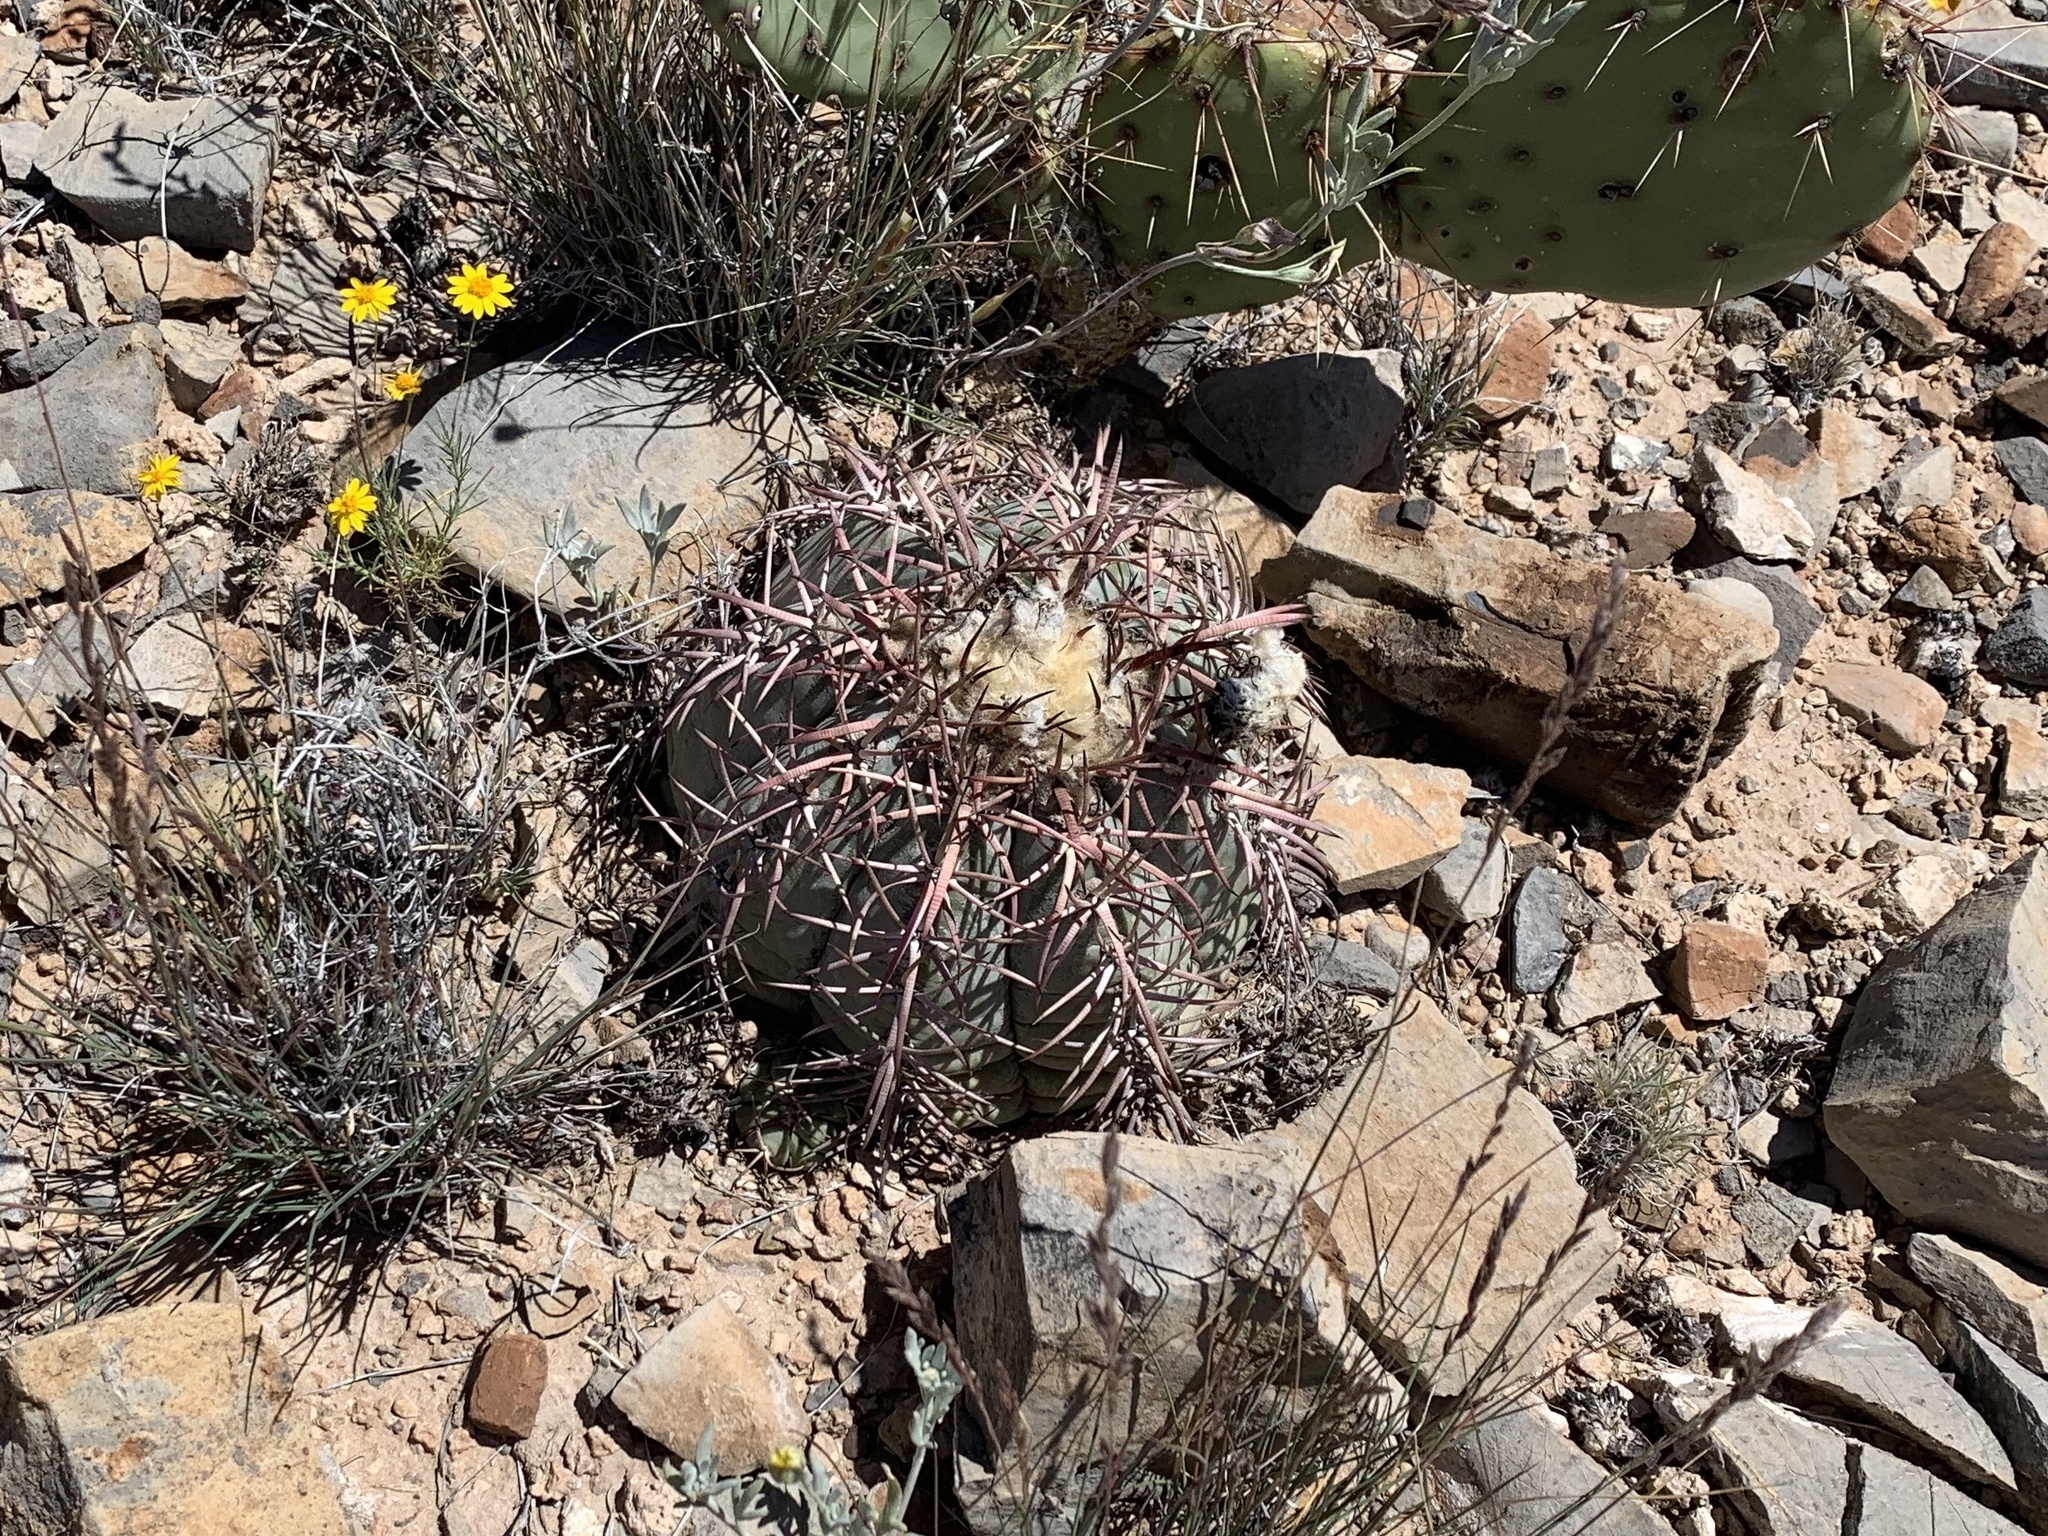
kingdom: Plantae
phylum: Tracheophyta
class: Magnoliopsida
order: Caryophyllales
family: Cactaceae
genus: Echinocactus
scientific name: Echinocactus horizonthalonius
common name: Devilshead
